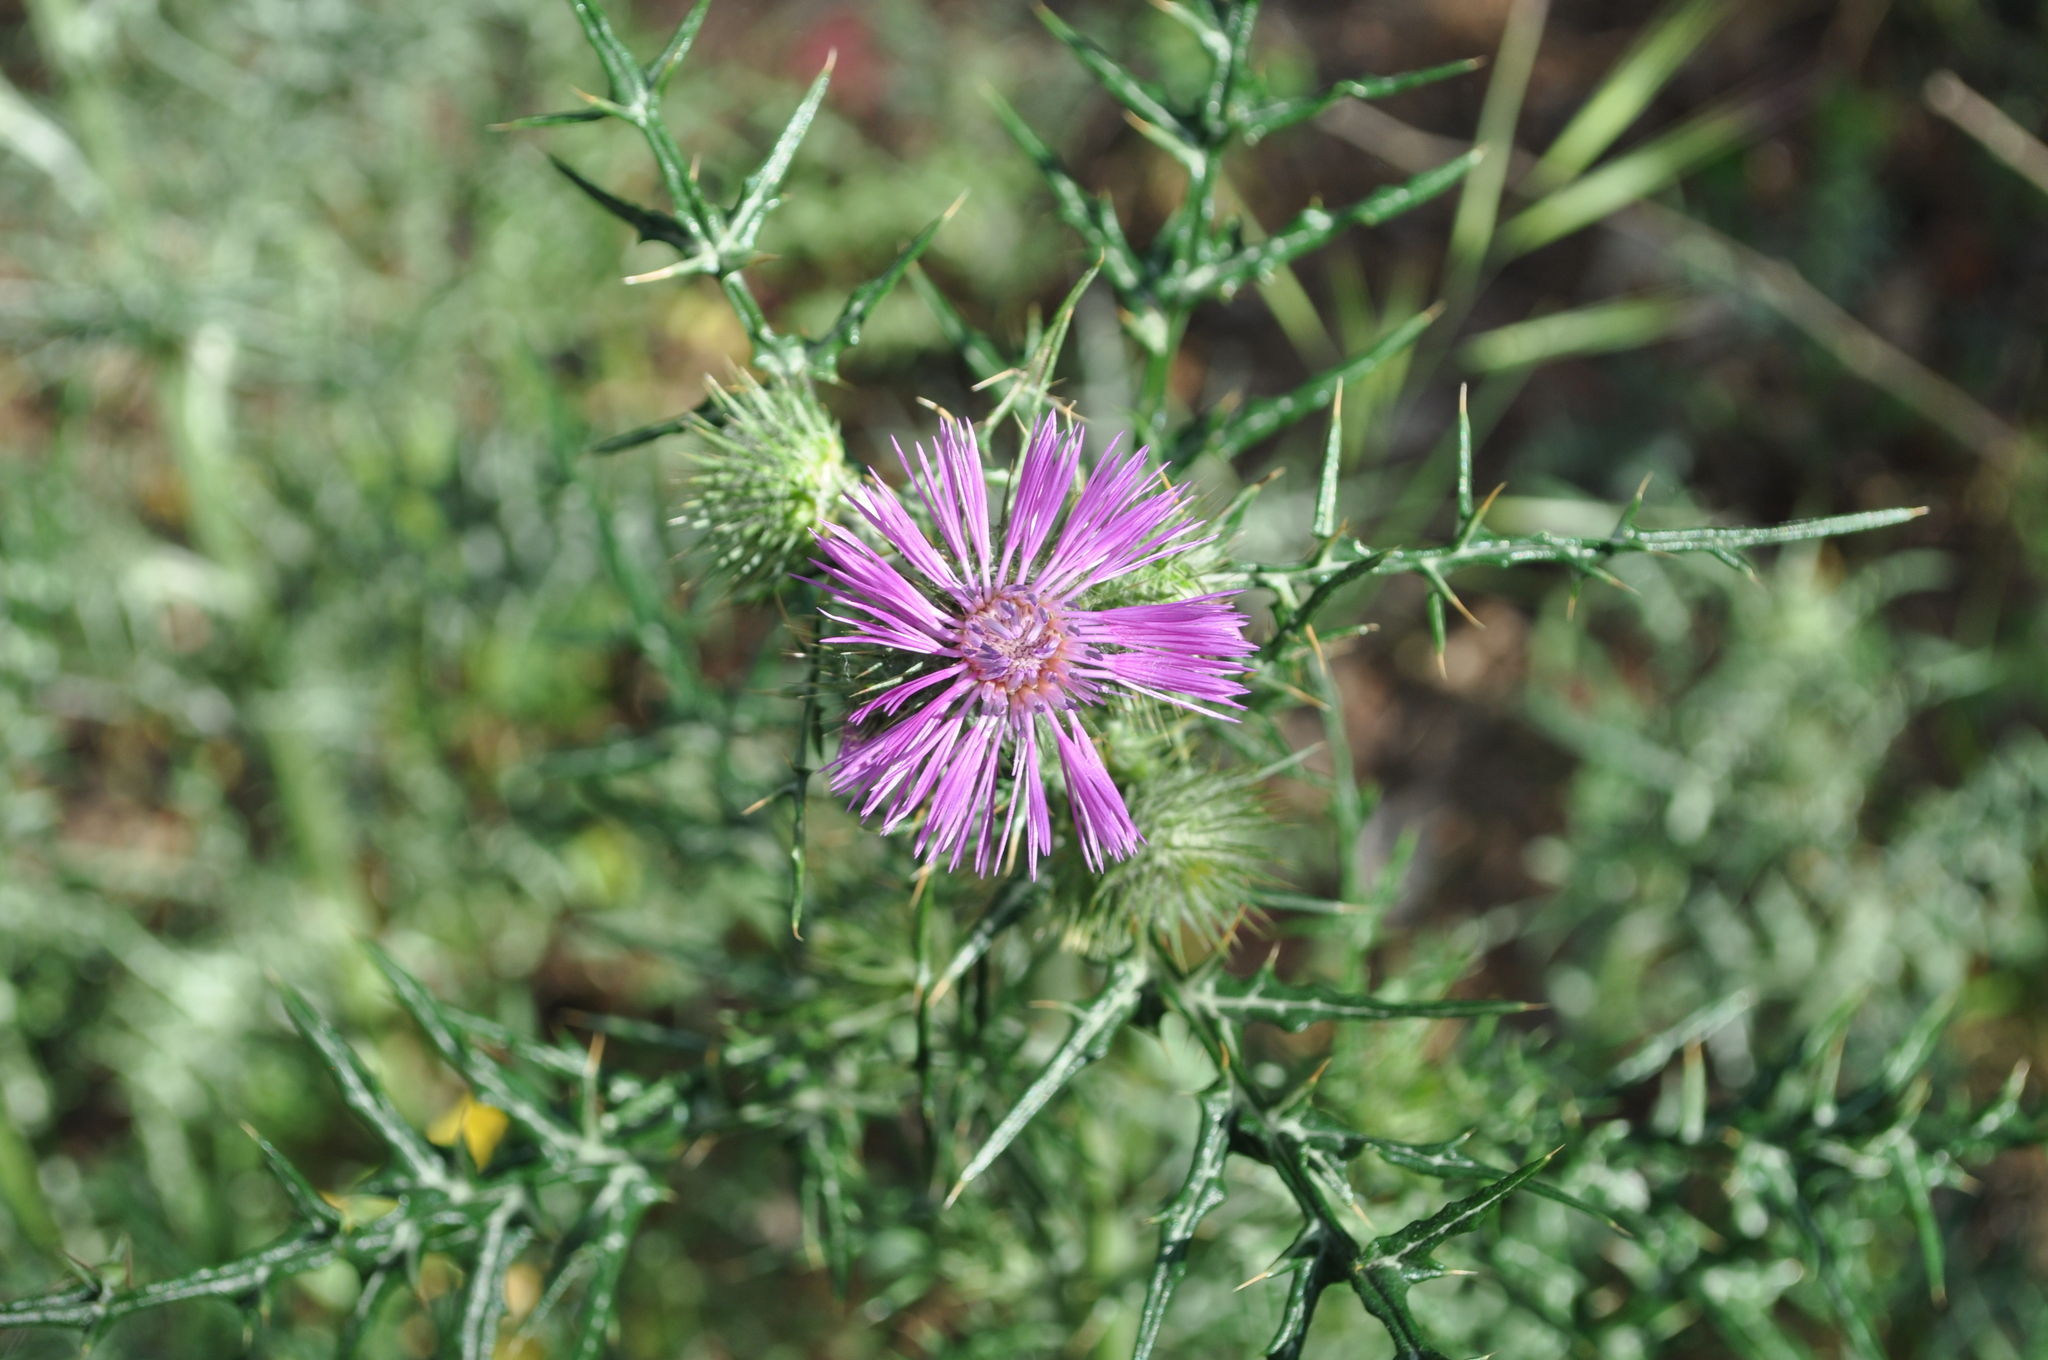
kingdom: Plantae
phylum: Tracheophyta
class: Magnoliopsida
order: Asterales
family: Asteraceae
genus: Galactites
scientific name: Galactites tomentosa
